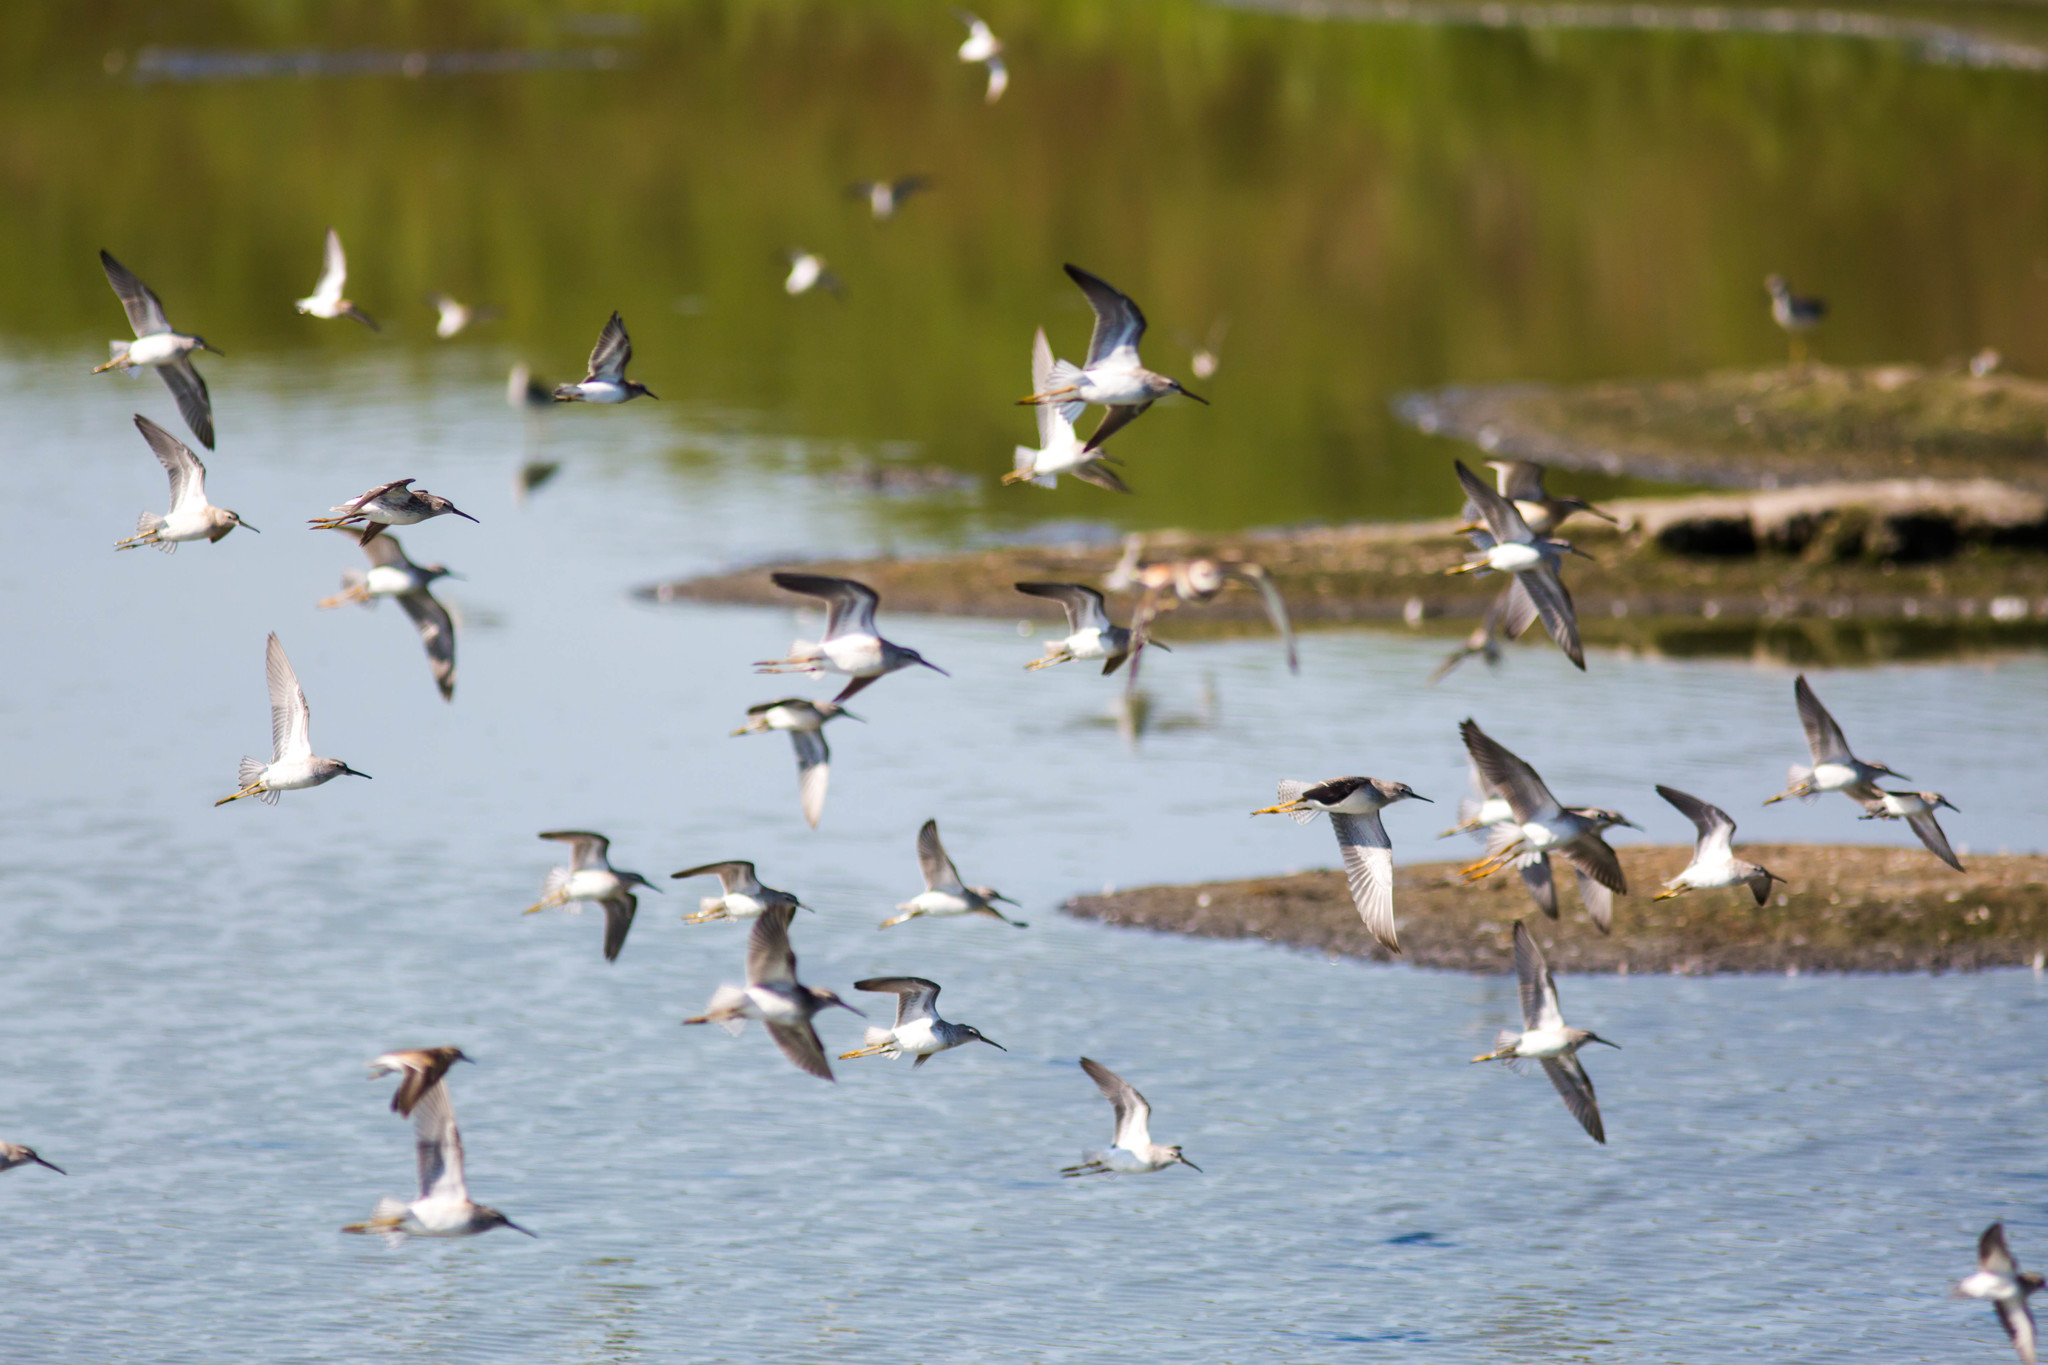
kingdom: Animalia
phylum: Chordata
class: Aves
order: Charadriiformes
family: Scolopacidae
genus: Calidris
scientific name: Calidris himantopus
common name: Stilt sandpiper
